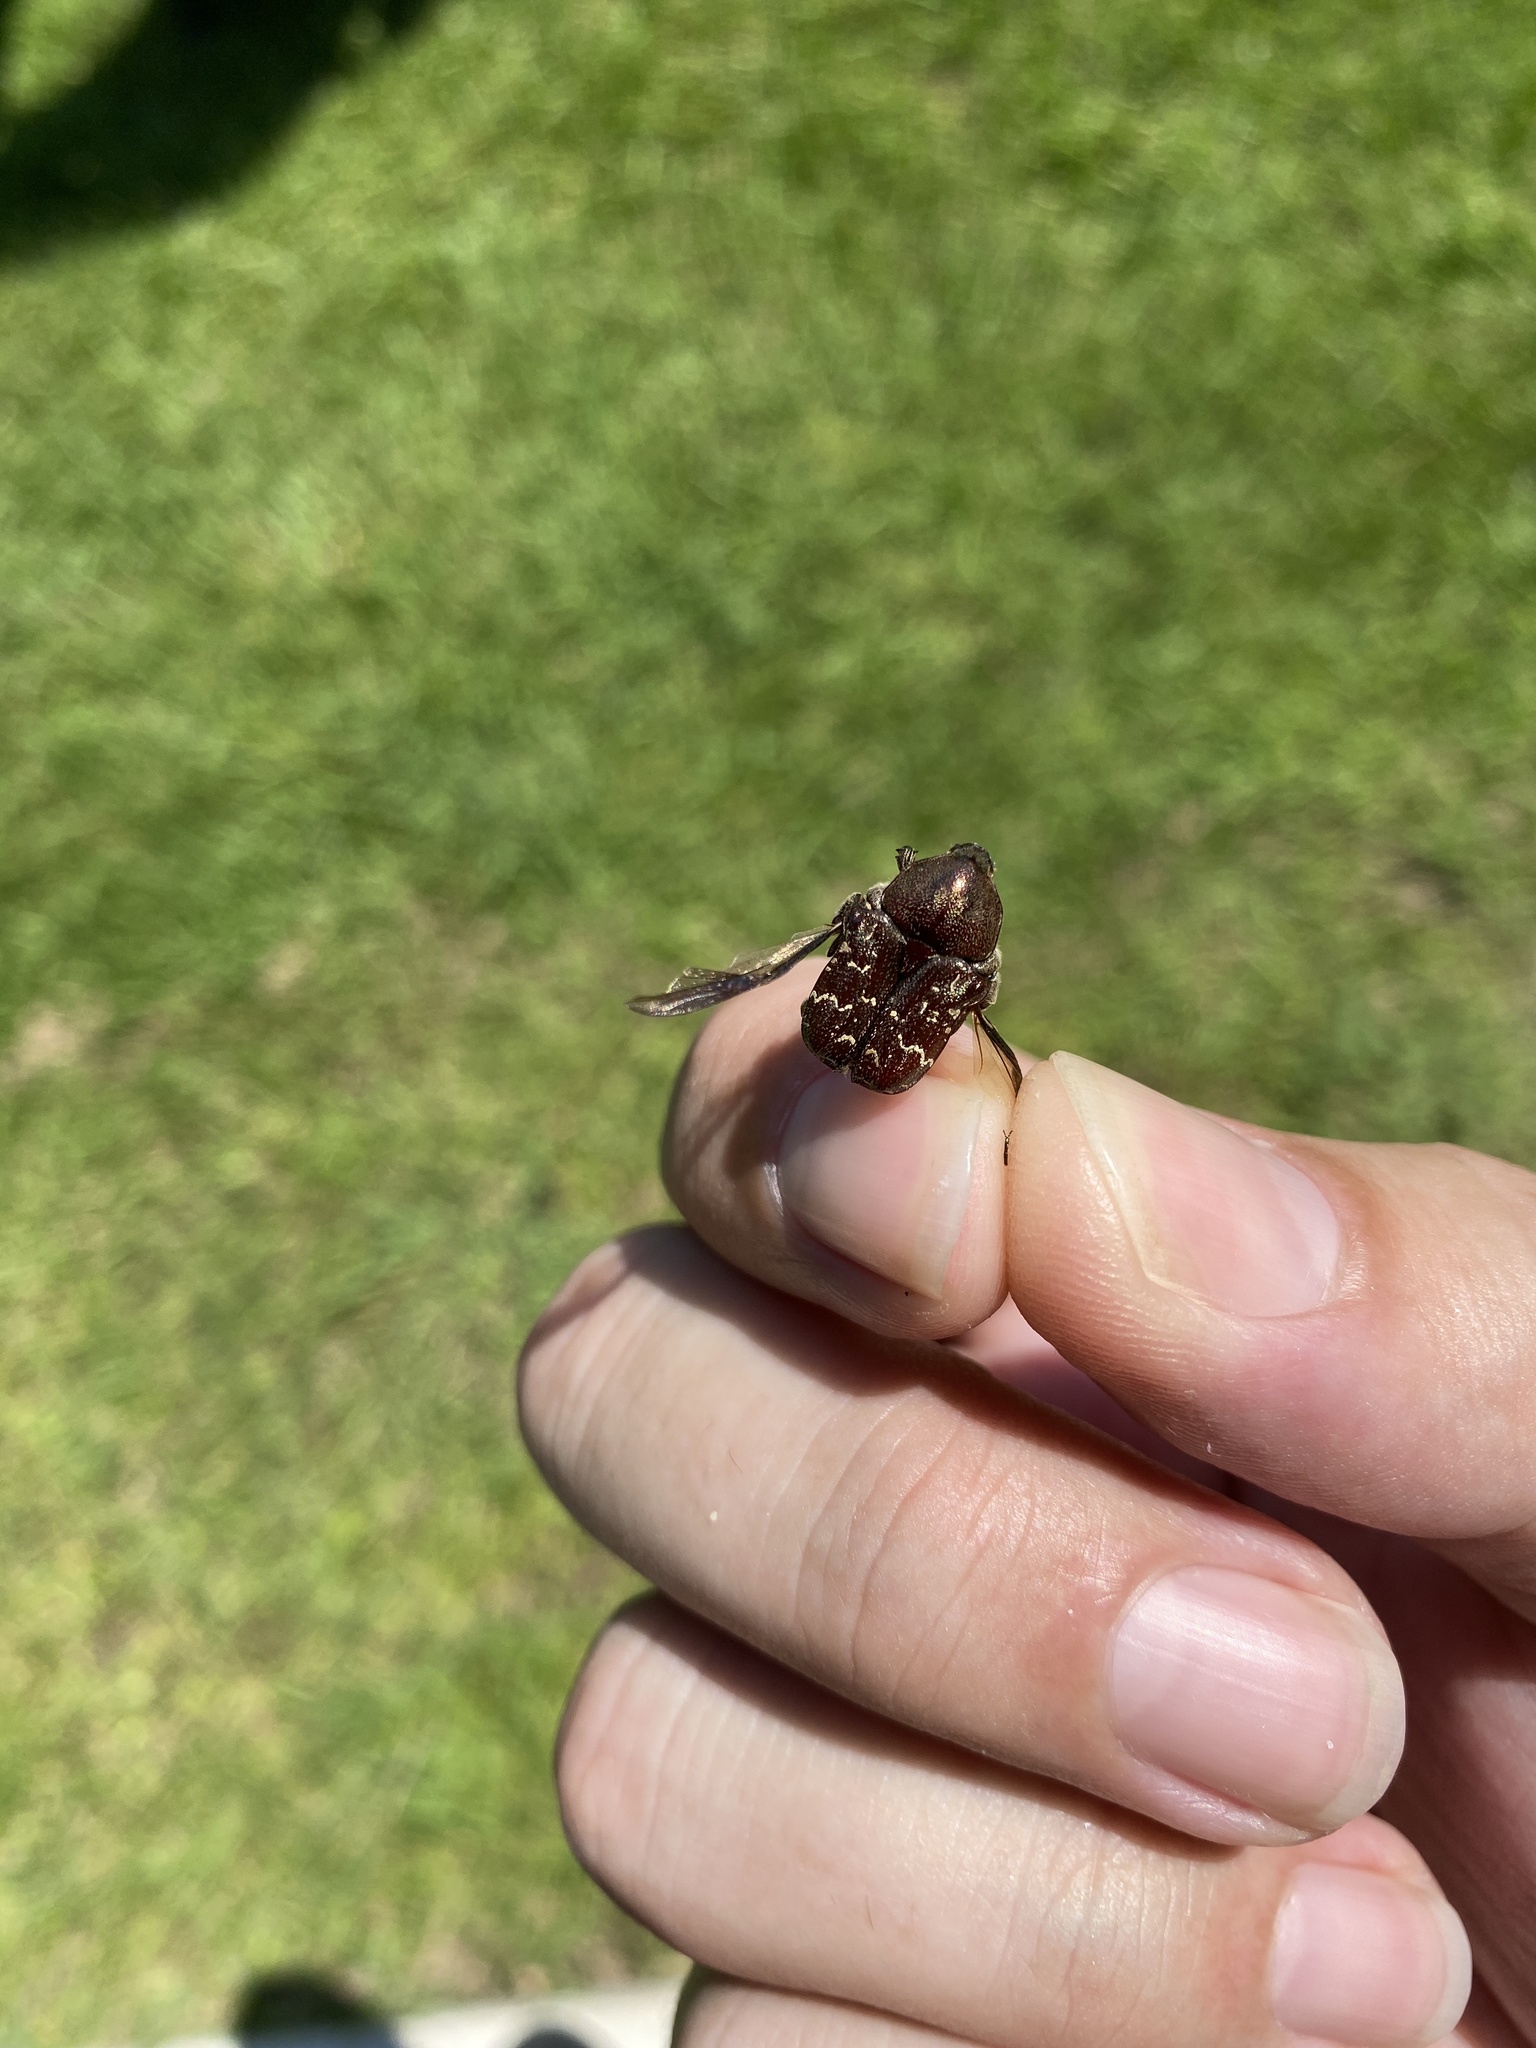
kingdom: Animalia
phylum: Arthropoda
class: Insecta
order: Coleoptera
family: Scarabaeidae
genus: Euphoria
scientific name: Euphoria sepulcralis
